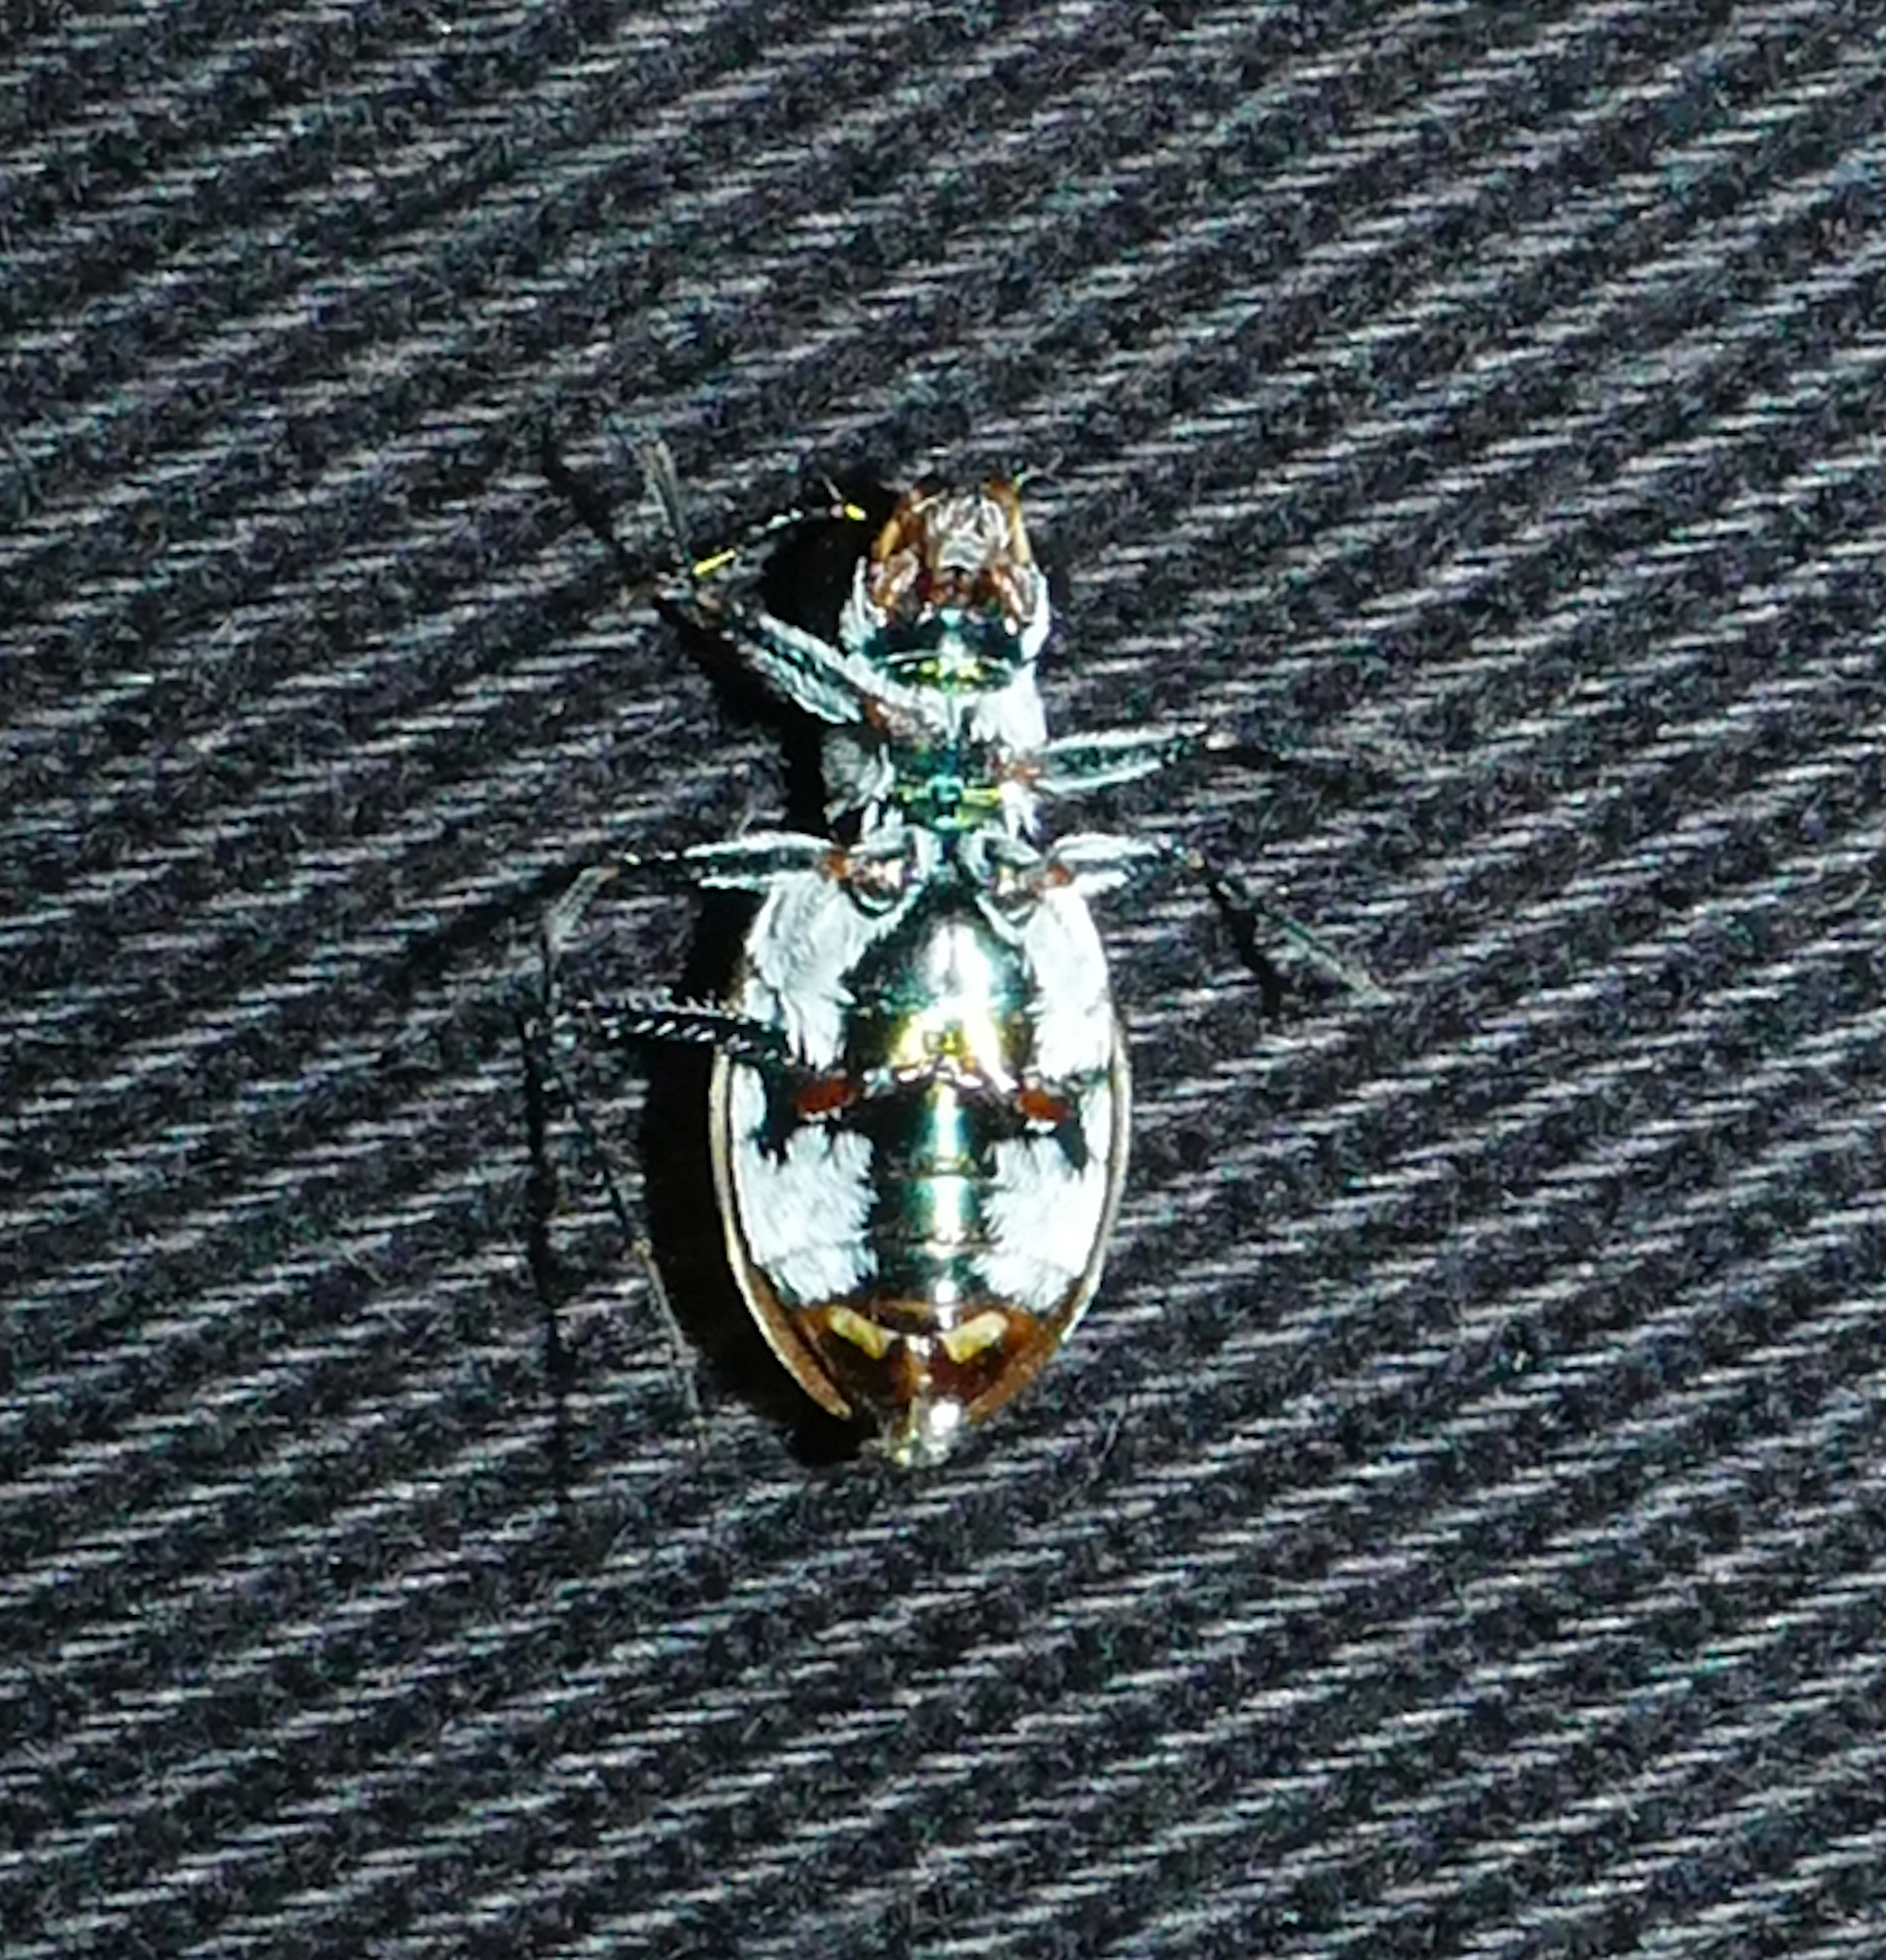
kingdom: Animalia
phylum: Arthropoda
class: Insecta
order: Coleoptera
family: Carabidae
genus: Eunota
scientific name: Eunota pamphila
